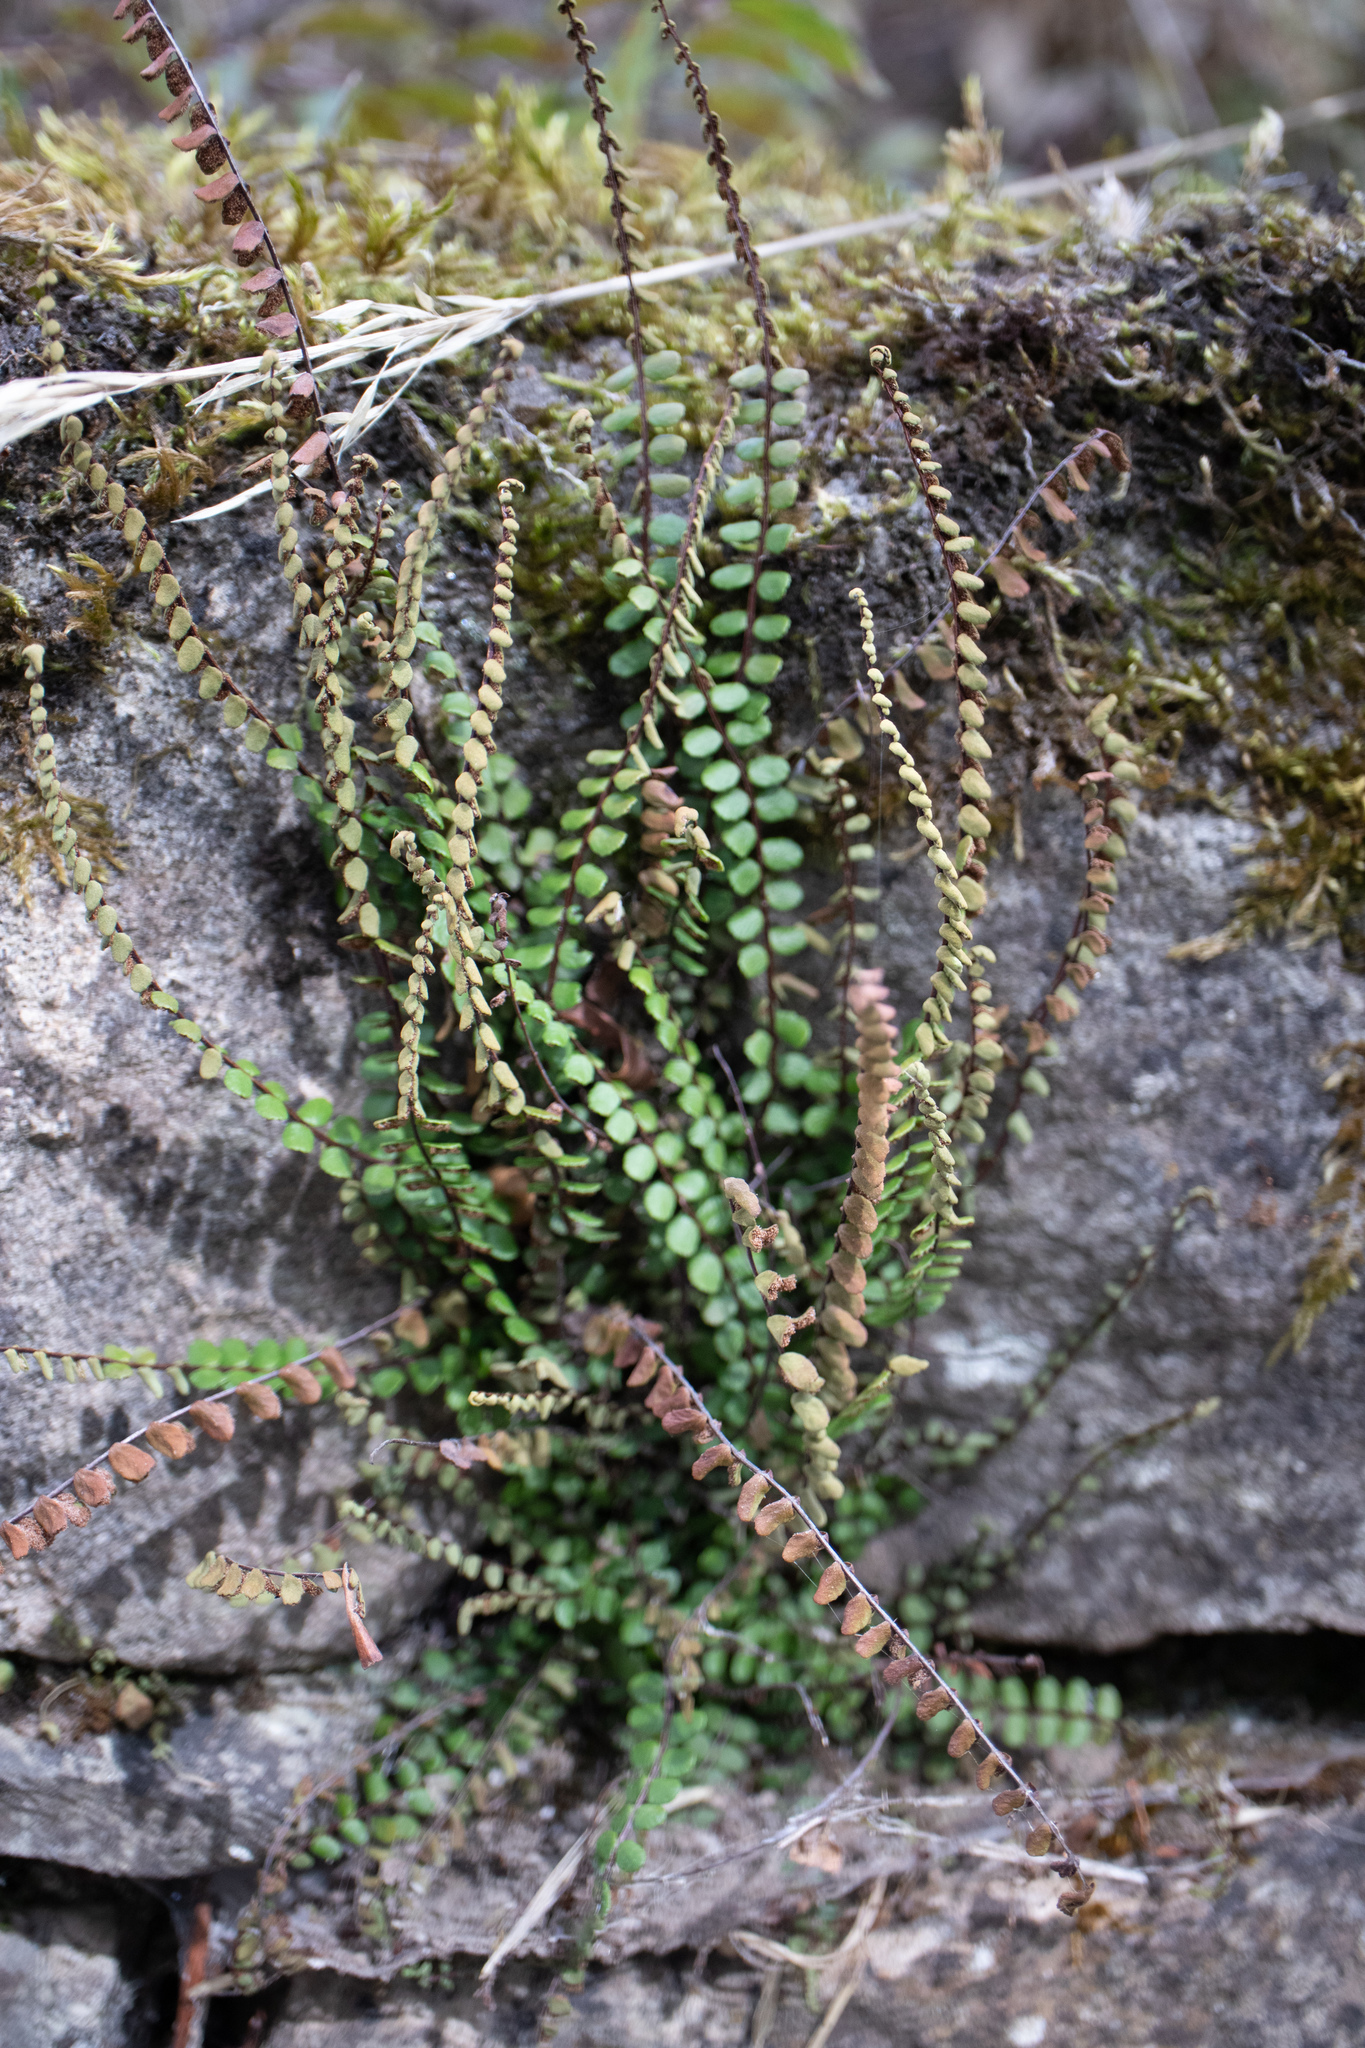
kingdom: Plantae
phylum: Tracheophyta
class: Polypodiopsida
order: Polypodiales
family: Aspleniaceae
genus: Asplenium
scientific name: Asplenium trichomanes
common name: Maidenhair spleenwort
